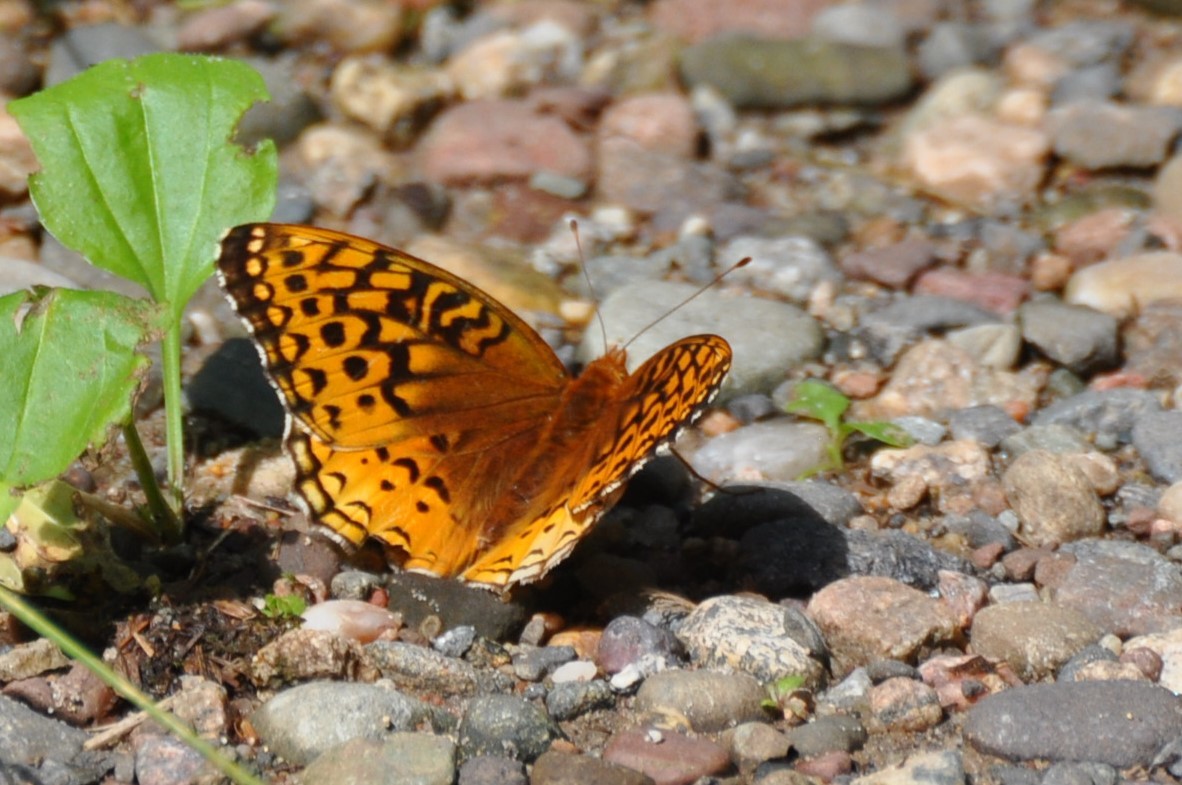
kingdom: Animalia
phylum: Arthropoda
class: Insecta
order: Lepidoptera
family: Nymphalidae
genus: Speyeria
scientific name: Speyeria cybele
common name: Great spangled fritillary
